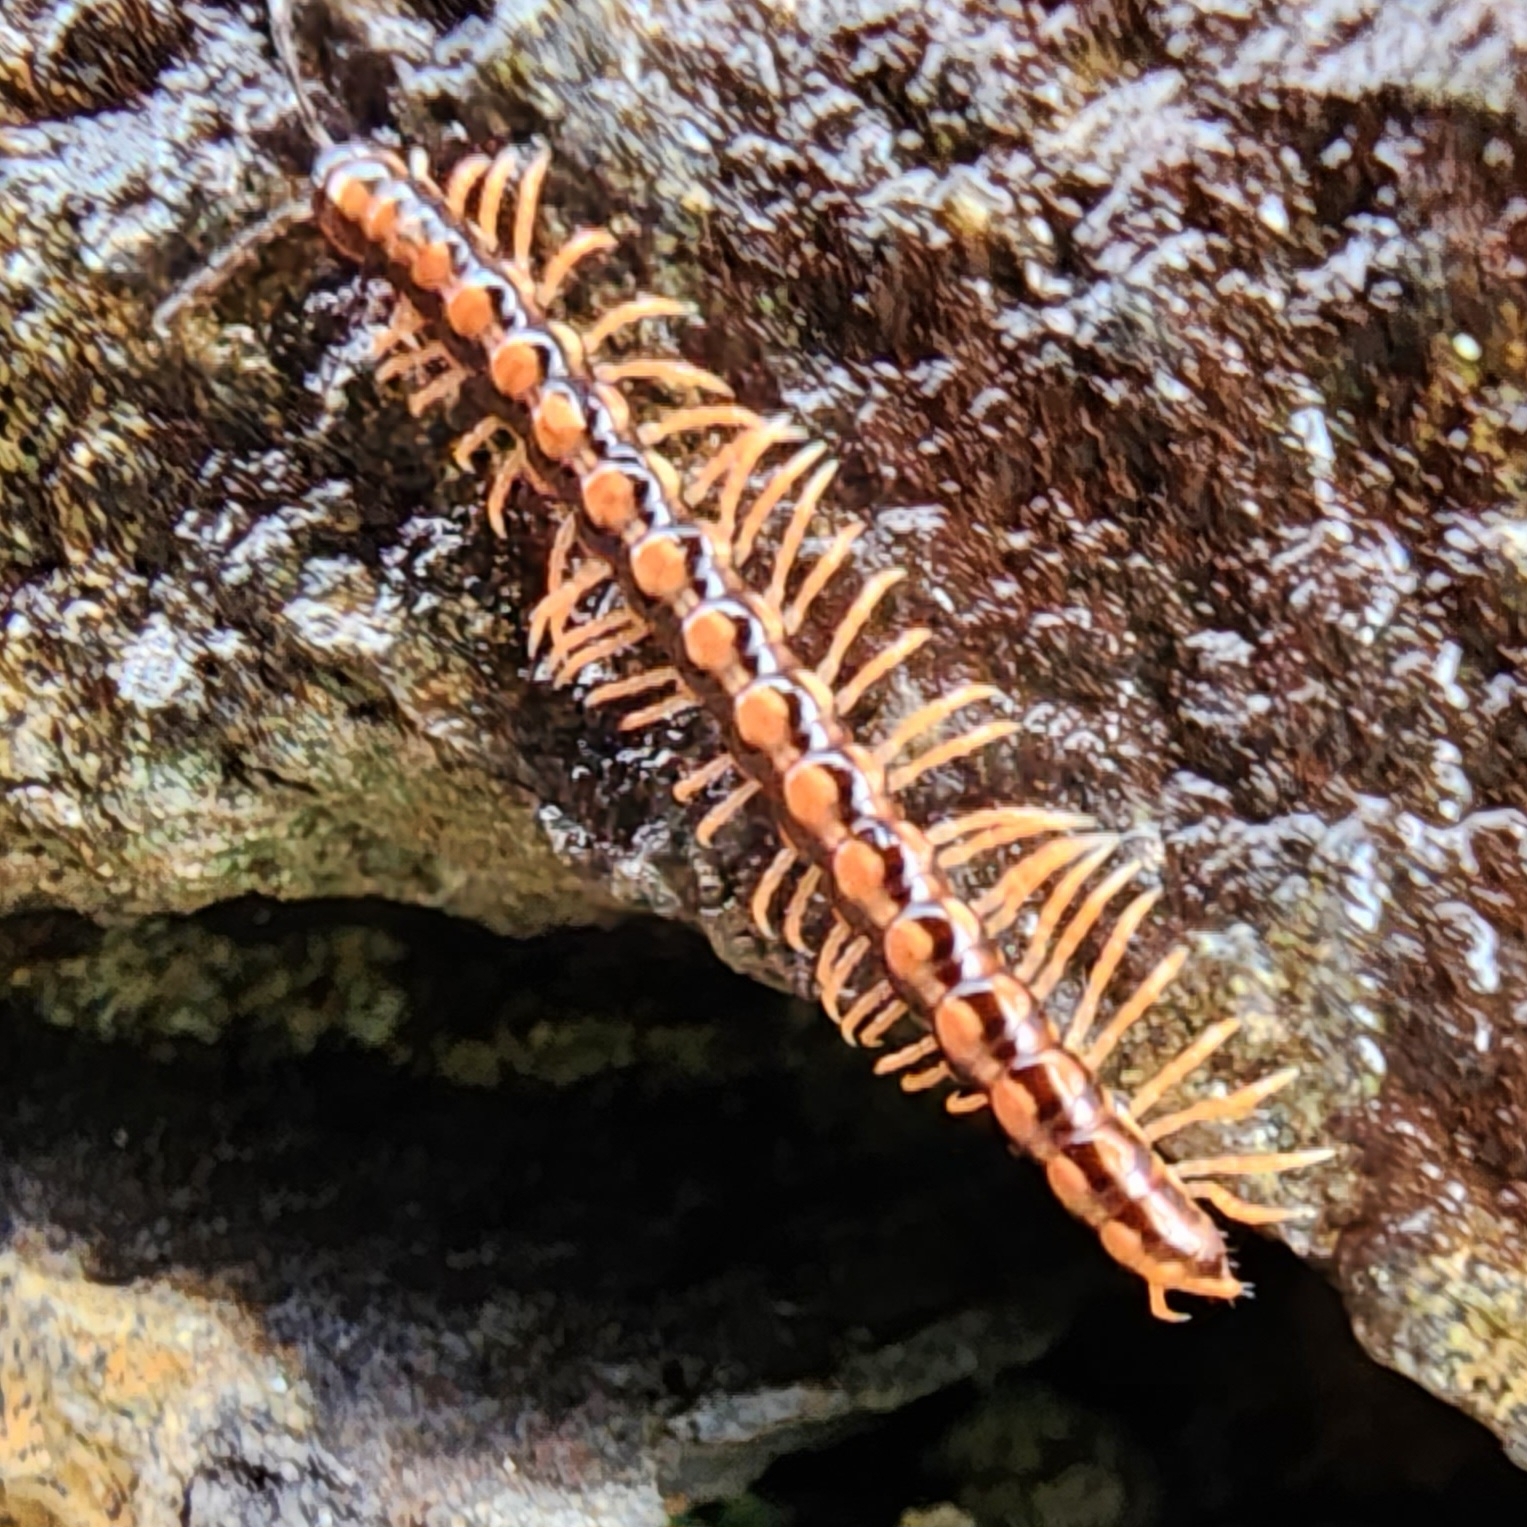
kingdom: Animalia
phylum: Arthropoda
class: Diplopoda
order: Polydesmida
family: Paradoxosomatidae
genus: Helicorthomorpha
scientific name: Helicorthomorpha holstii
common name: Millipede
